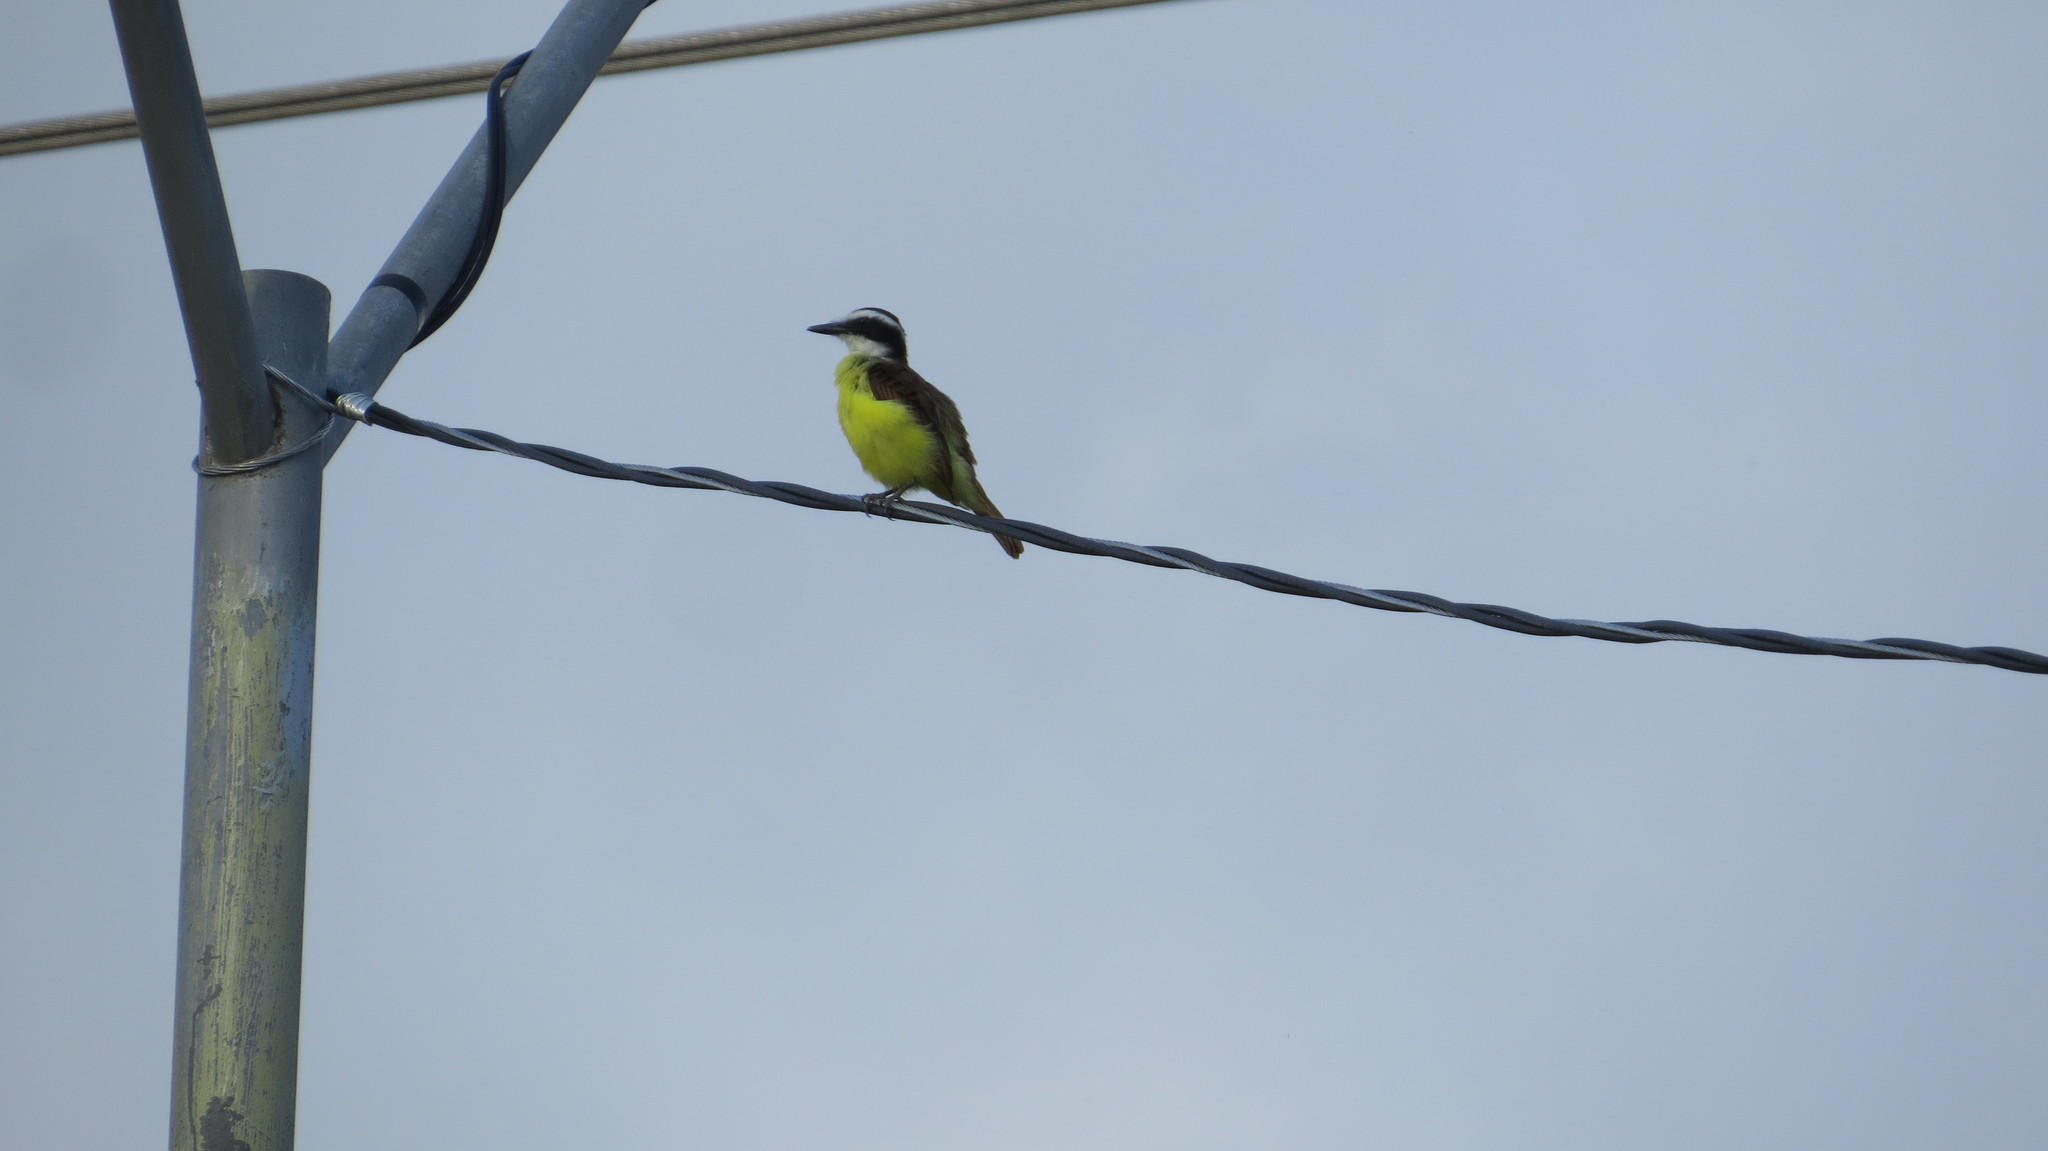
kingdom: Animalia
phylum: Chordata
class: Aves
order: Passeriformes
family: Tyrannidae
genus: Pitangus
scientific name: Pitangus sulphuratus
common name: Great kiskadee
